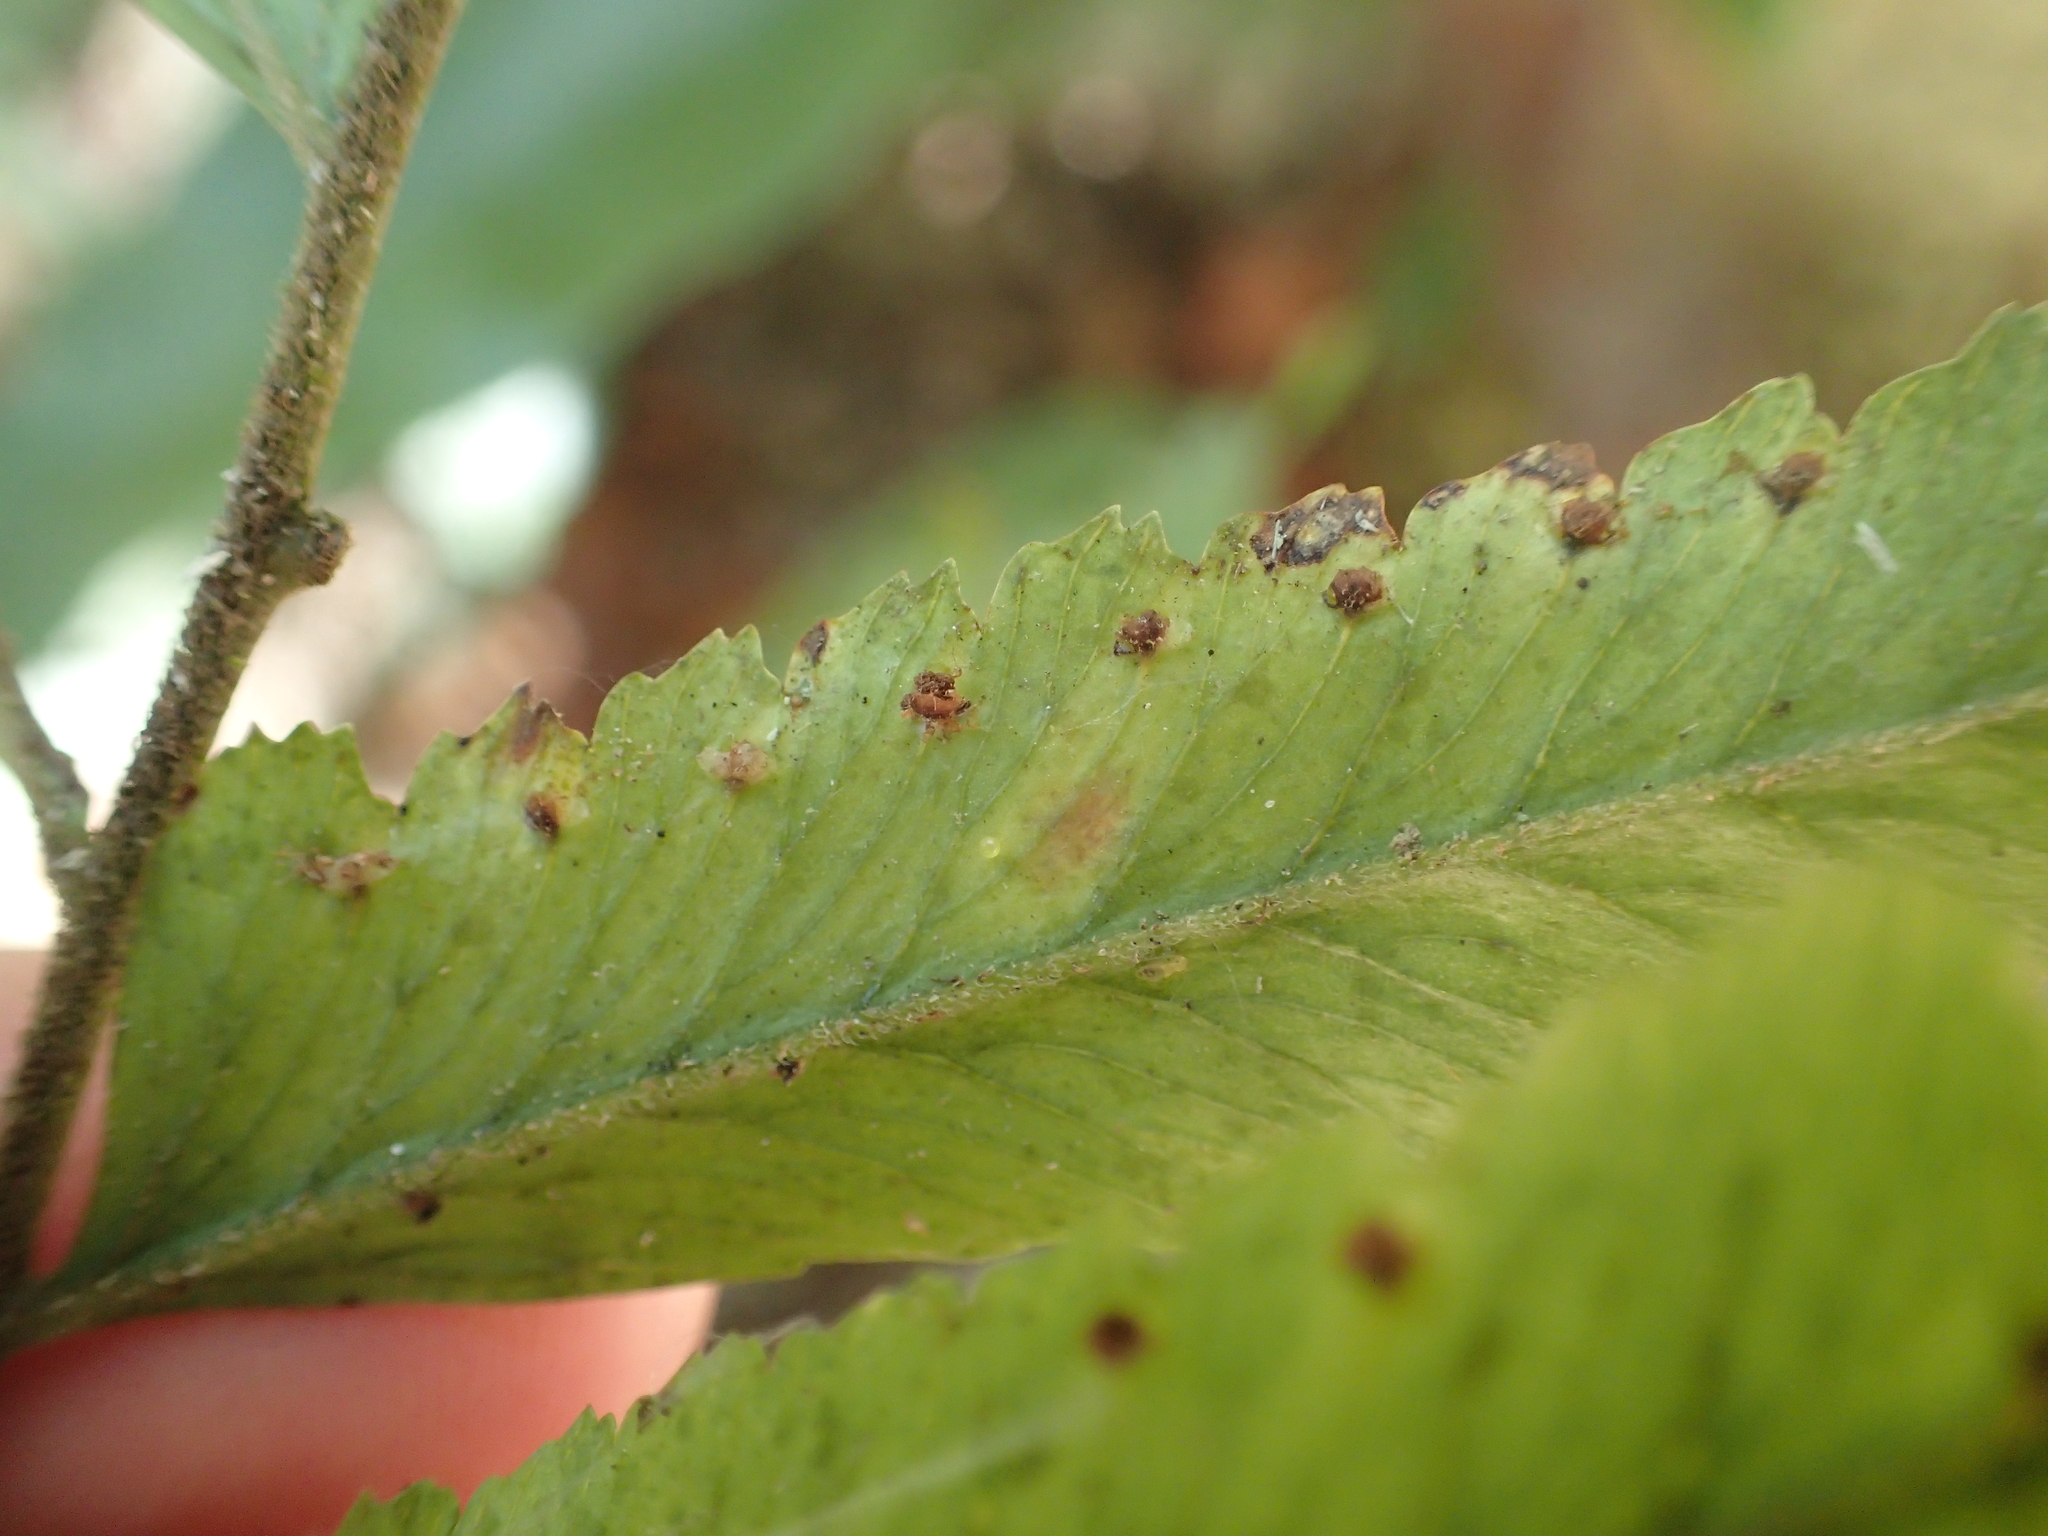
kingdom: Plantae
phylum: Tracheophyta
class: Polypodiopsida
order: Polypodiales
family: Dennstaedtiaceae
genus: Microlepia
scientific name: Microlepia calvescens
